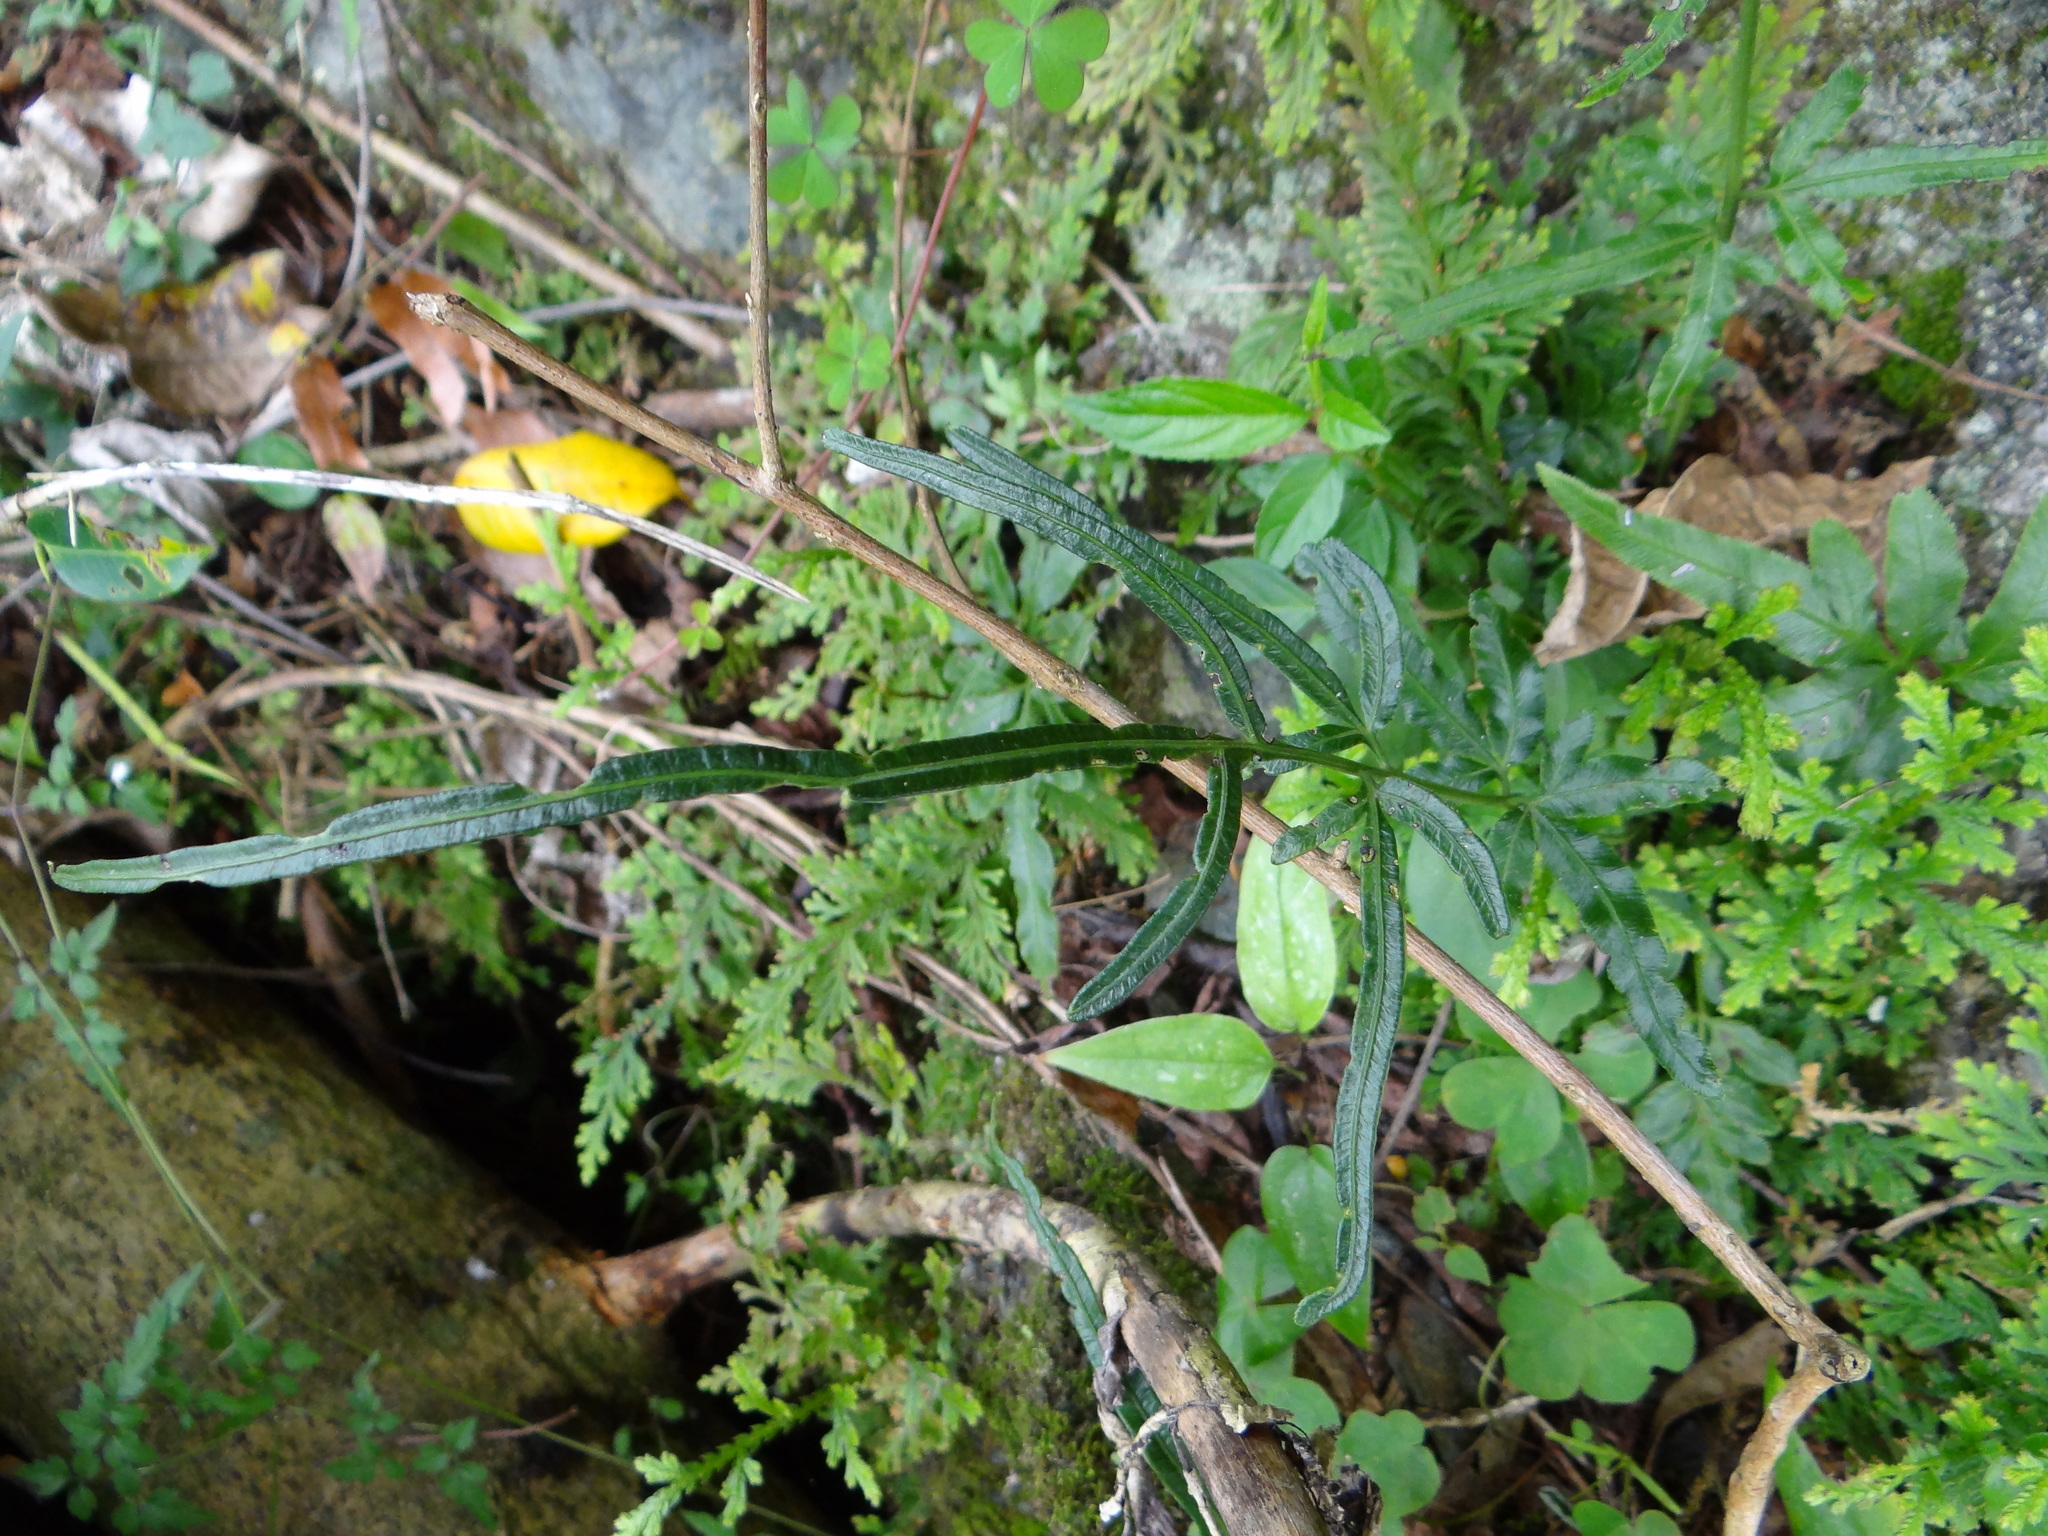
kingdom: Plantae
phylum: Tracheophyta
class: Polypodiopsida
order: Polypodiales
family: Pteridaceae
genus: Pteris
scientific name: Pteris ensiformis
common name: Sword brake
